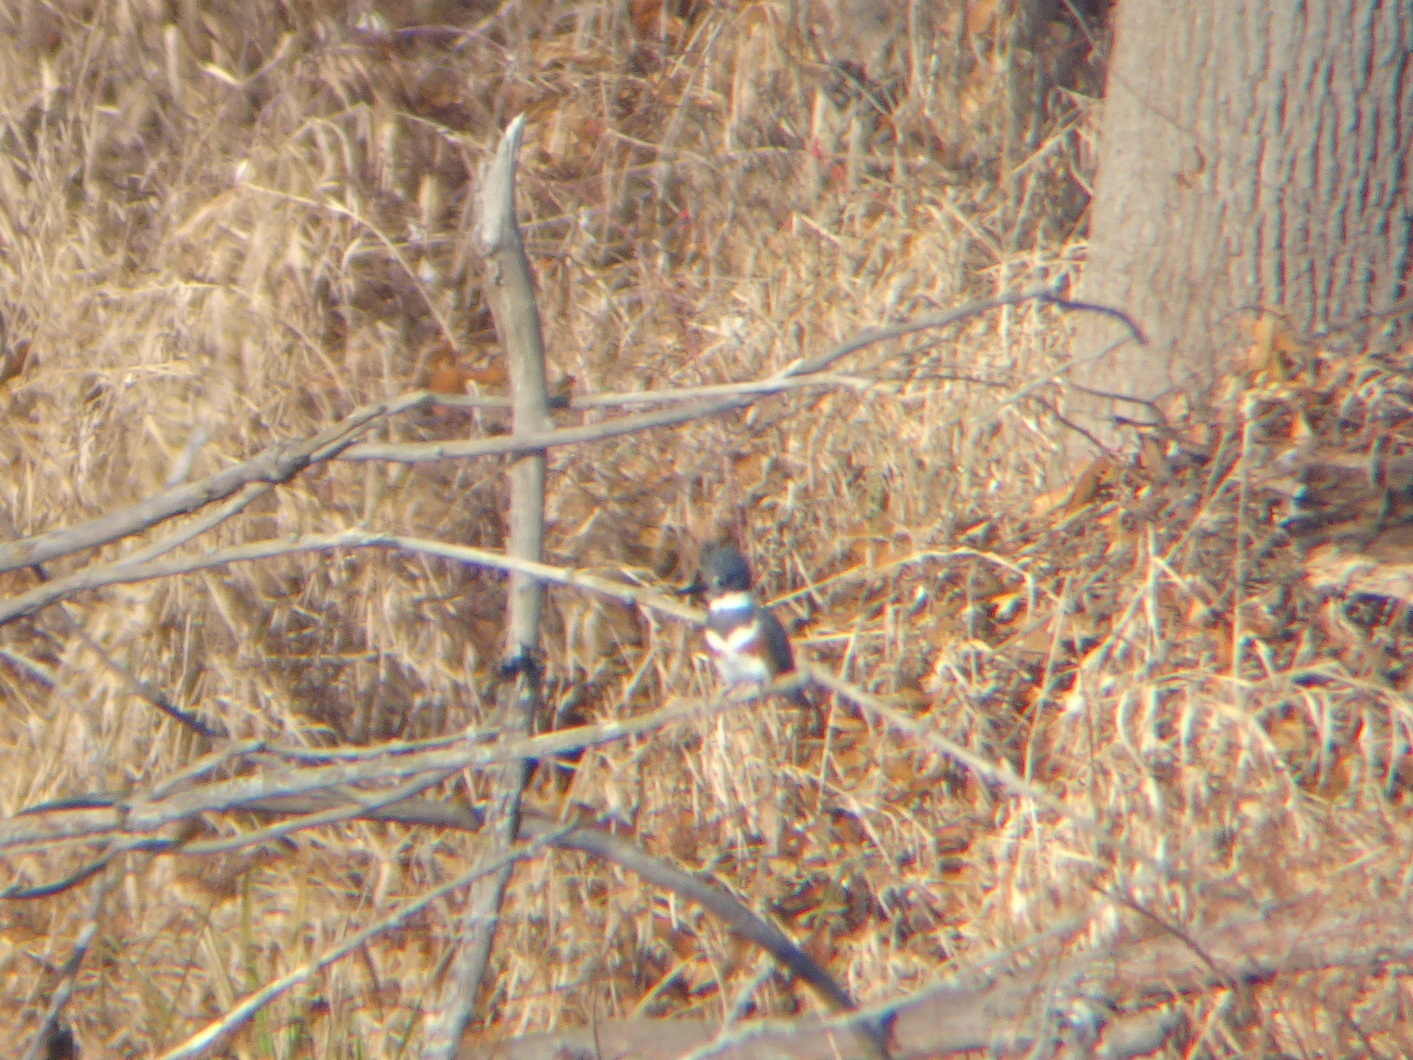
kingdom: Animalia
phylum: Chordata
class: Aves
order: Coraciiformes
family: Alcedinidae
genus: Megaceryle
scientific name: Megaceryle alcyon
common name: Belted kingfisher
